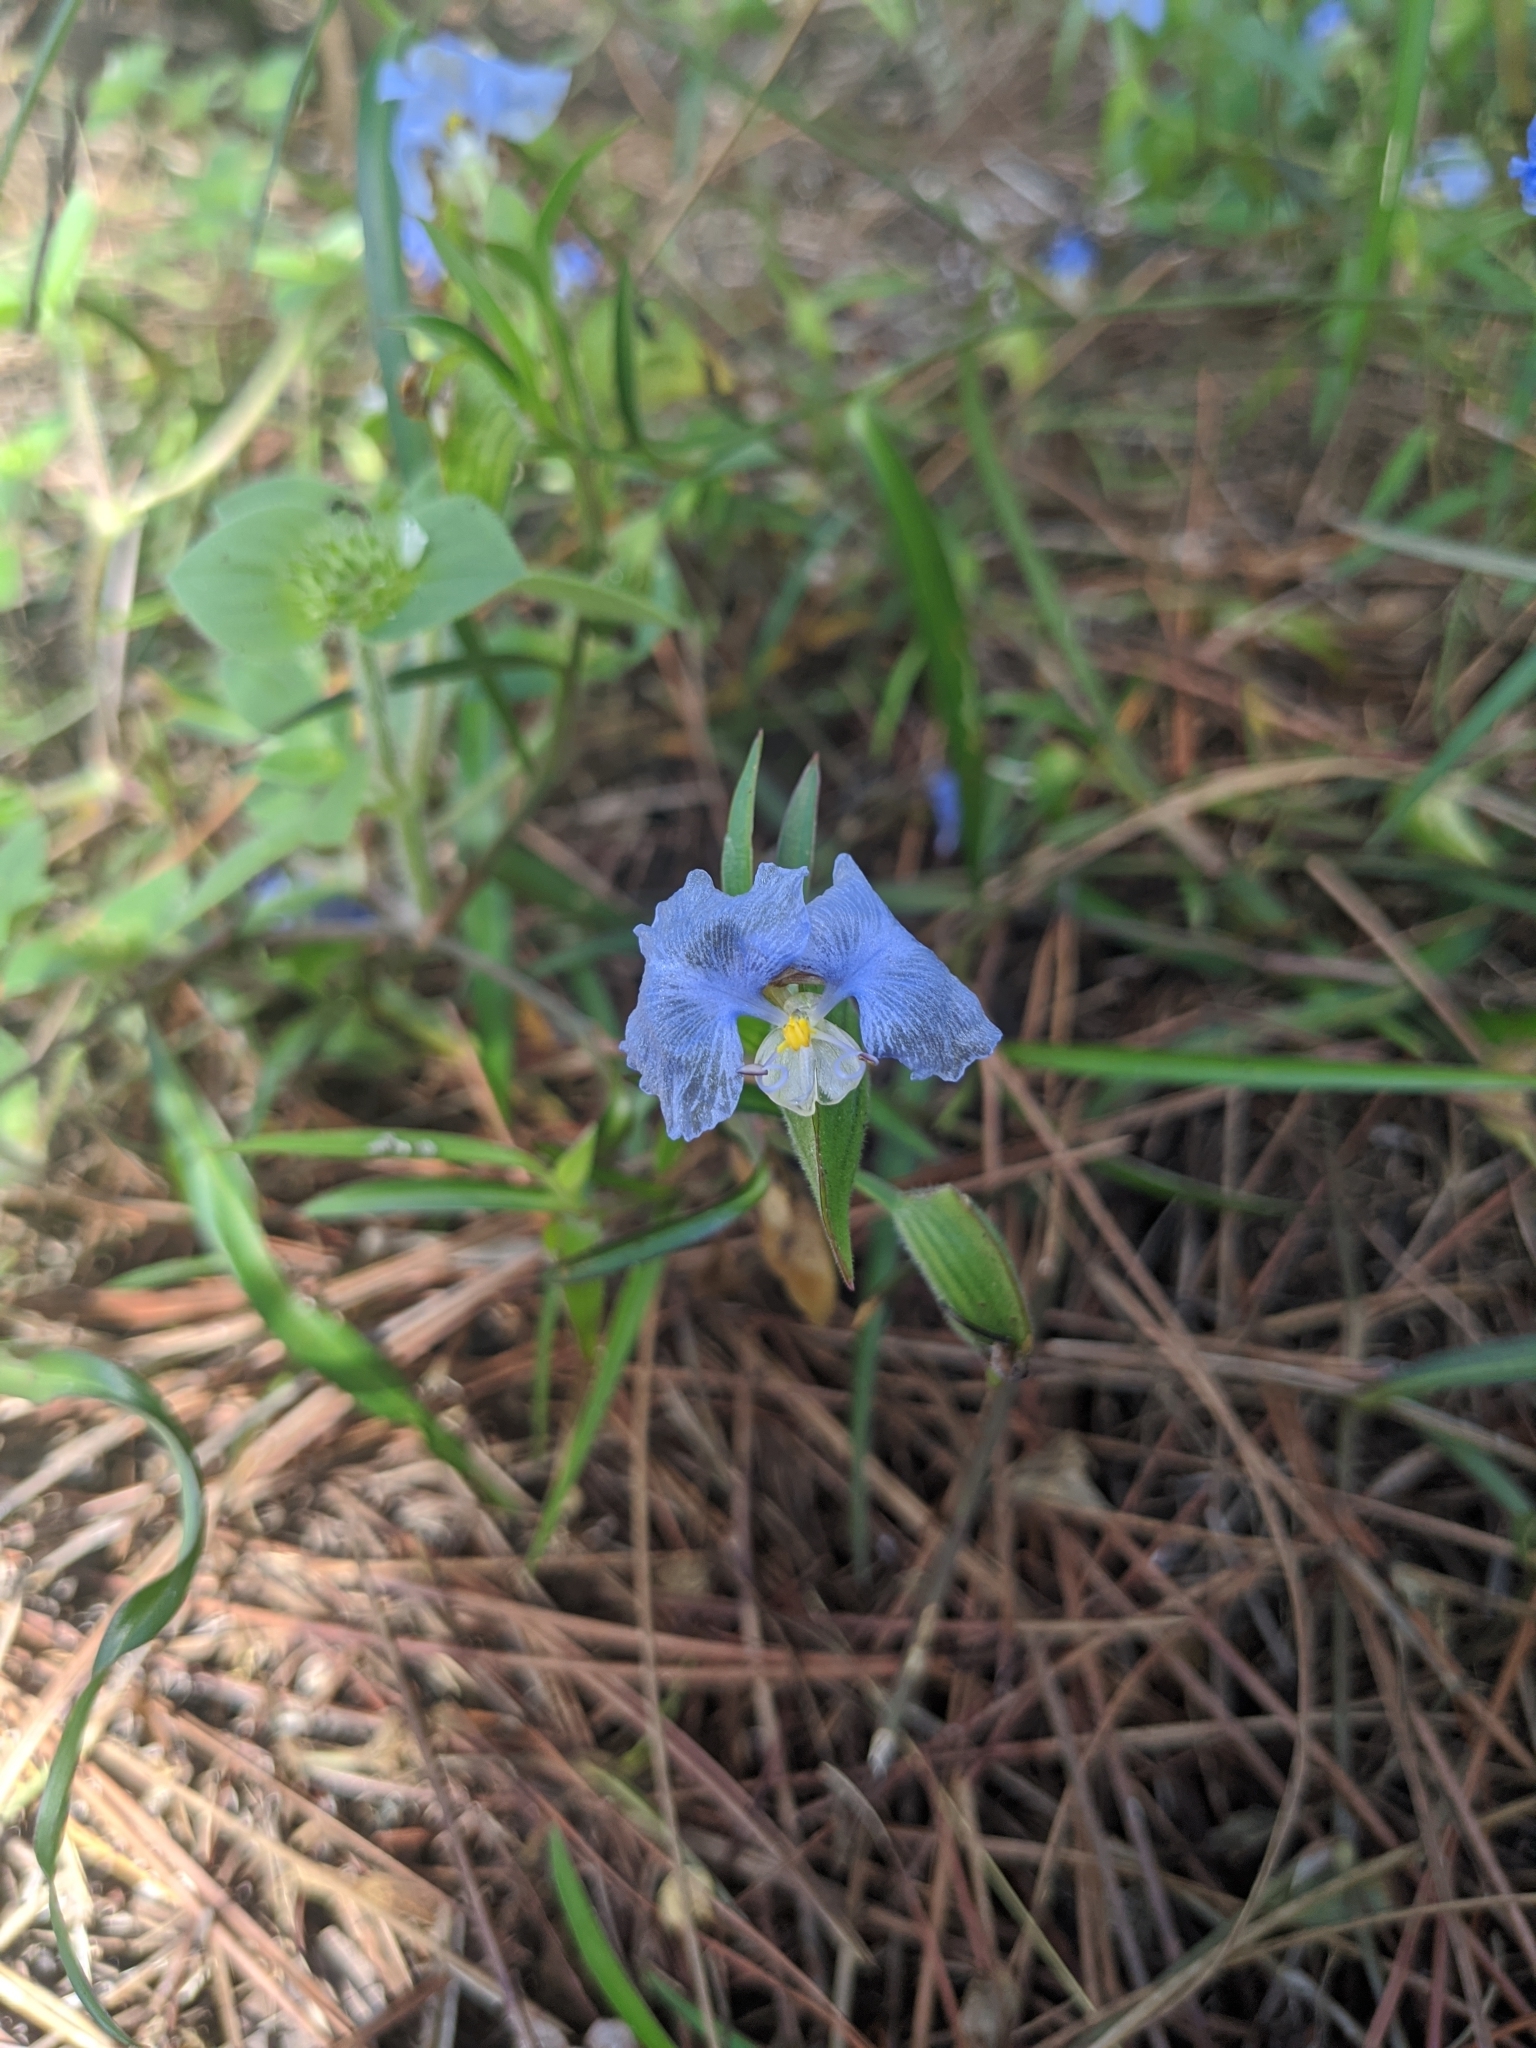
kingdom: Plantae
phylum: Tracheophyta
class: Liliopsida
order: Commelinales
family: Commelinaceae
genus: Commelina
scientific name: Commelina erecta
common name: Blousel blommetjie
